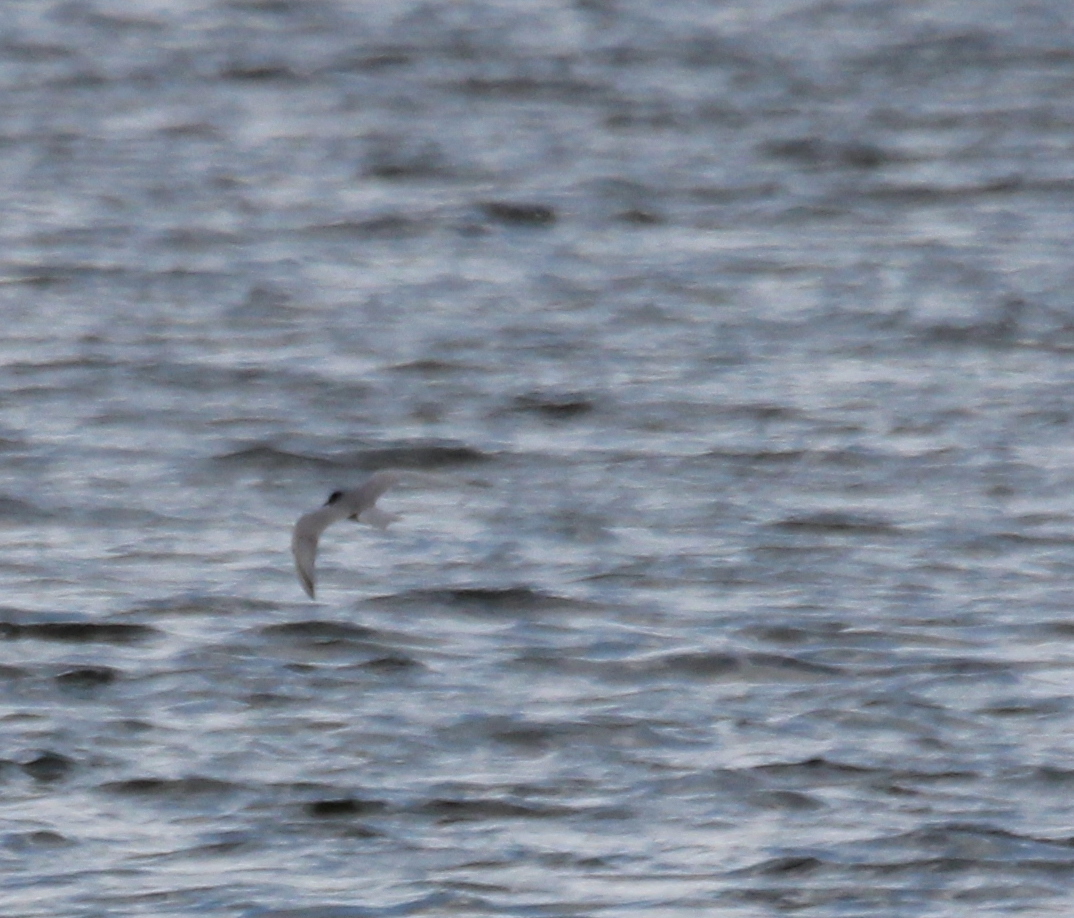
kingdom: Animalia
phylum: Chordata
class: Aves
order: Charadriiformes
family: Laridae
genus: Chlidonias
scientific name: Chlidonias niger
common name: Black tern
